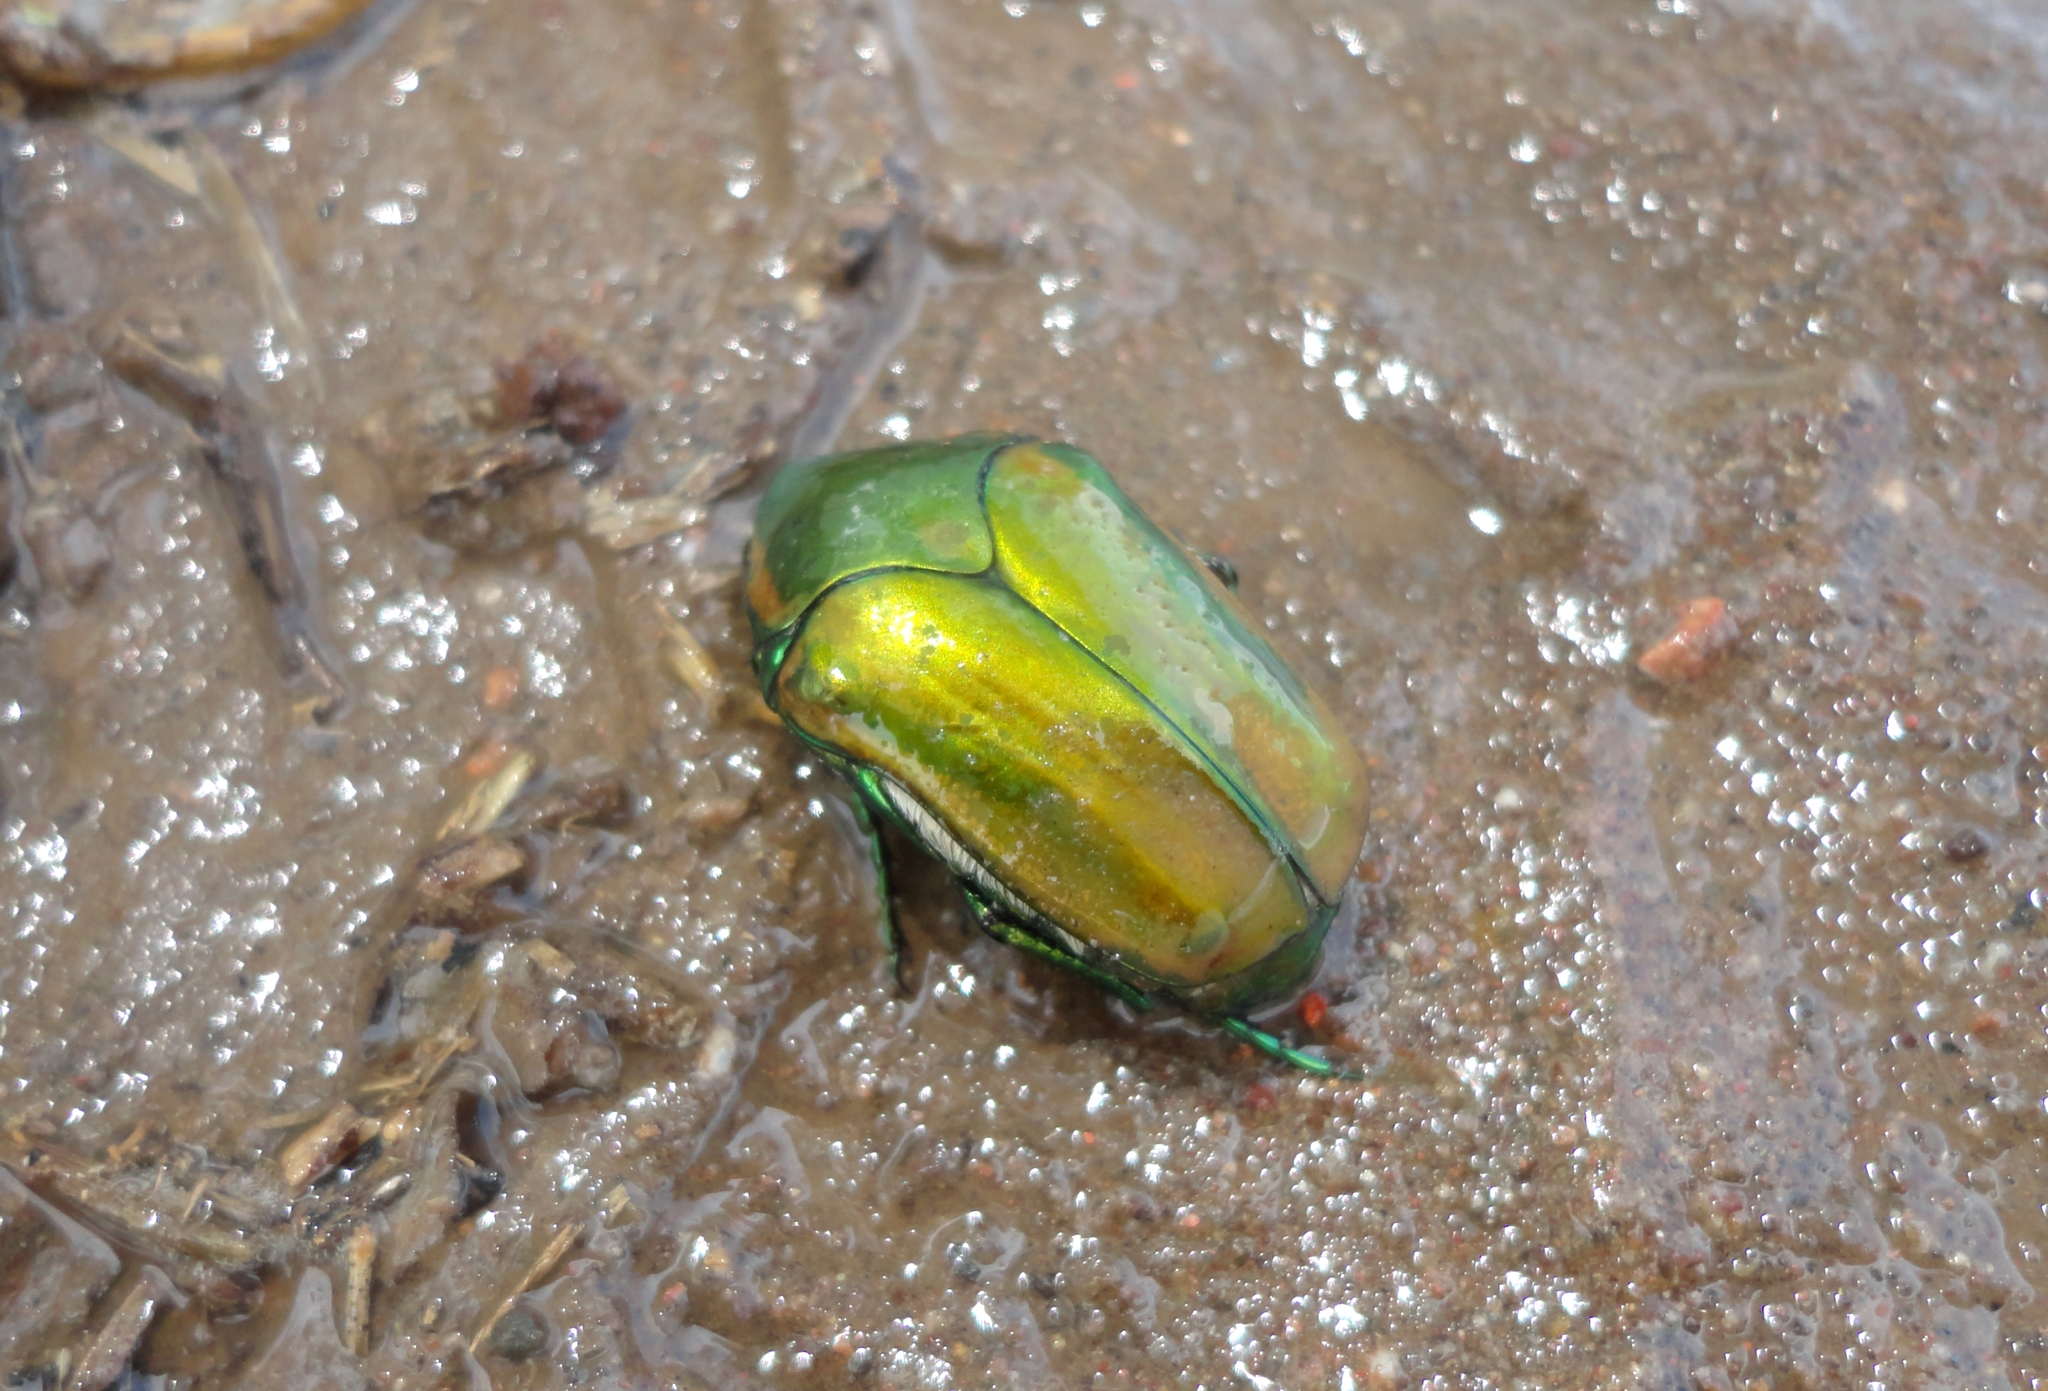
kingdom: Animalia
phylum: Arthropoda
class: Insecta
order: Coleoptera
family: Scarabaeidae
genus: Cotinis
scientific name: Cotinis mutabilis
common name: Figeater beetle
